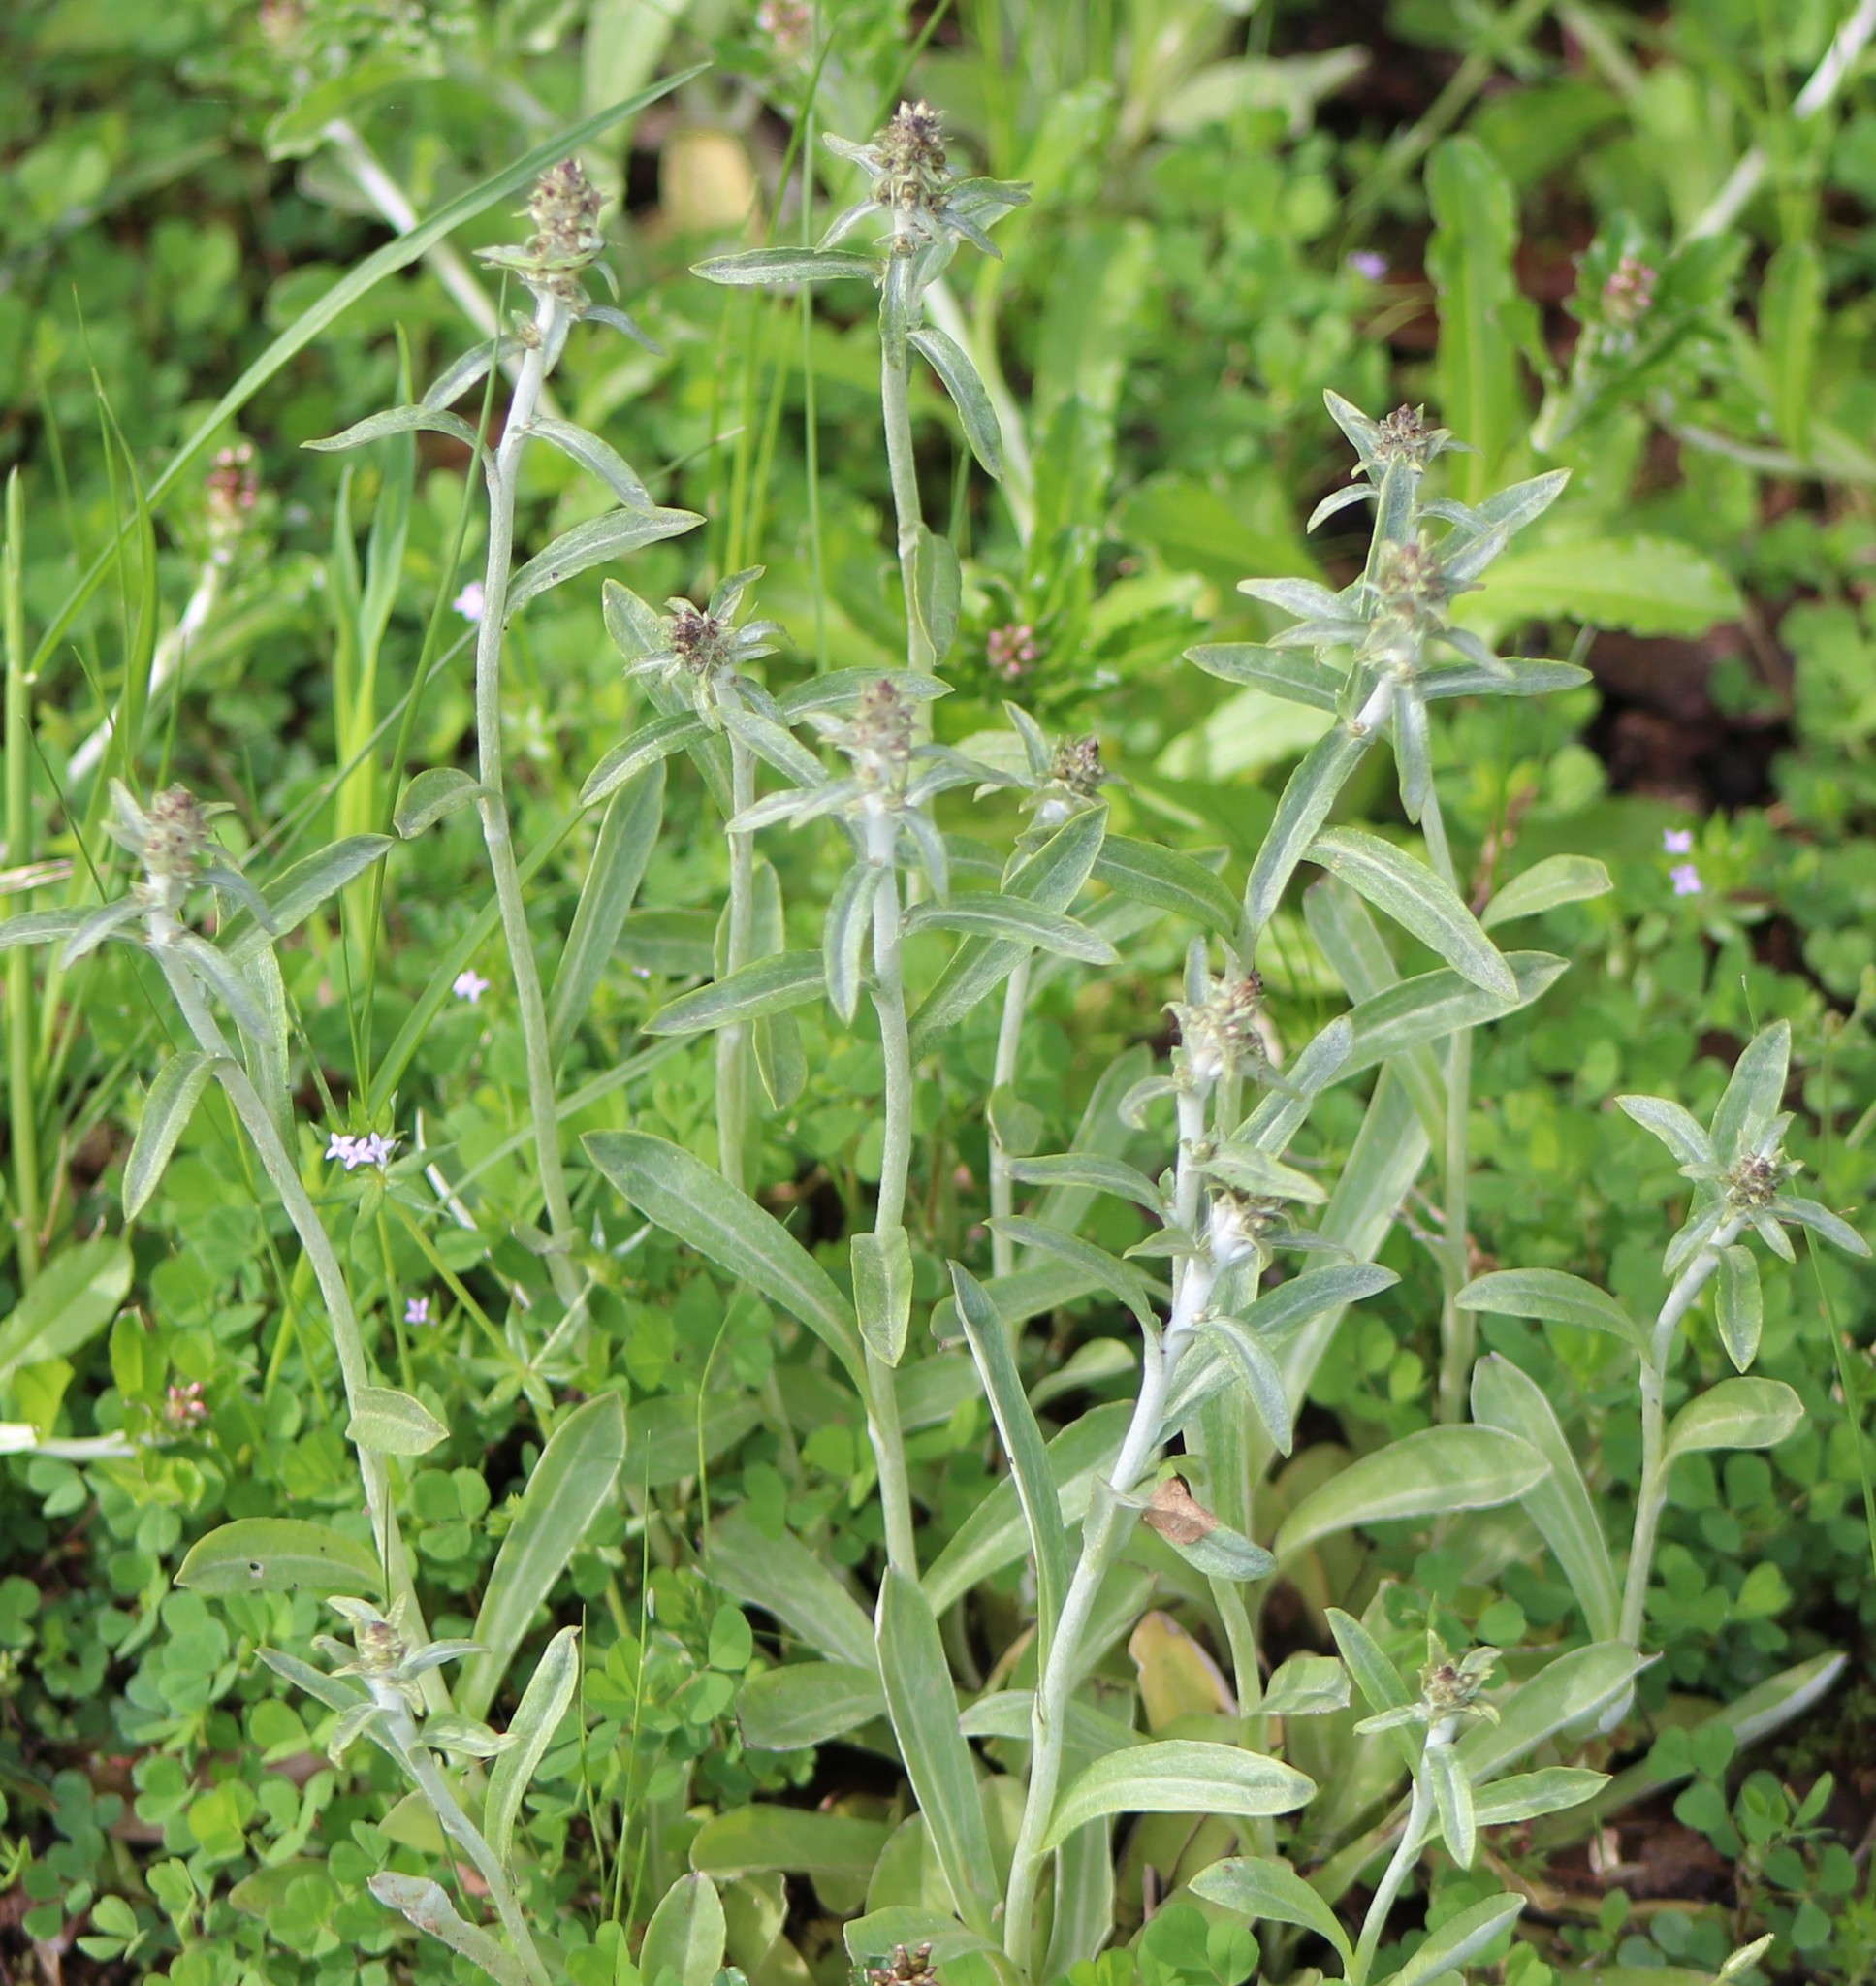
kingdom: Plantae
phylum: Tracheophyta
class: Magnoliopsida
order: Asterales
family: Asteraceae
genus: Gamochaeta
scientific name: Gamochaeta pensylvanica
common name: Pennsylvania everlasting
